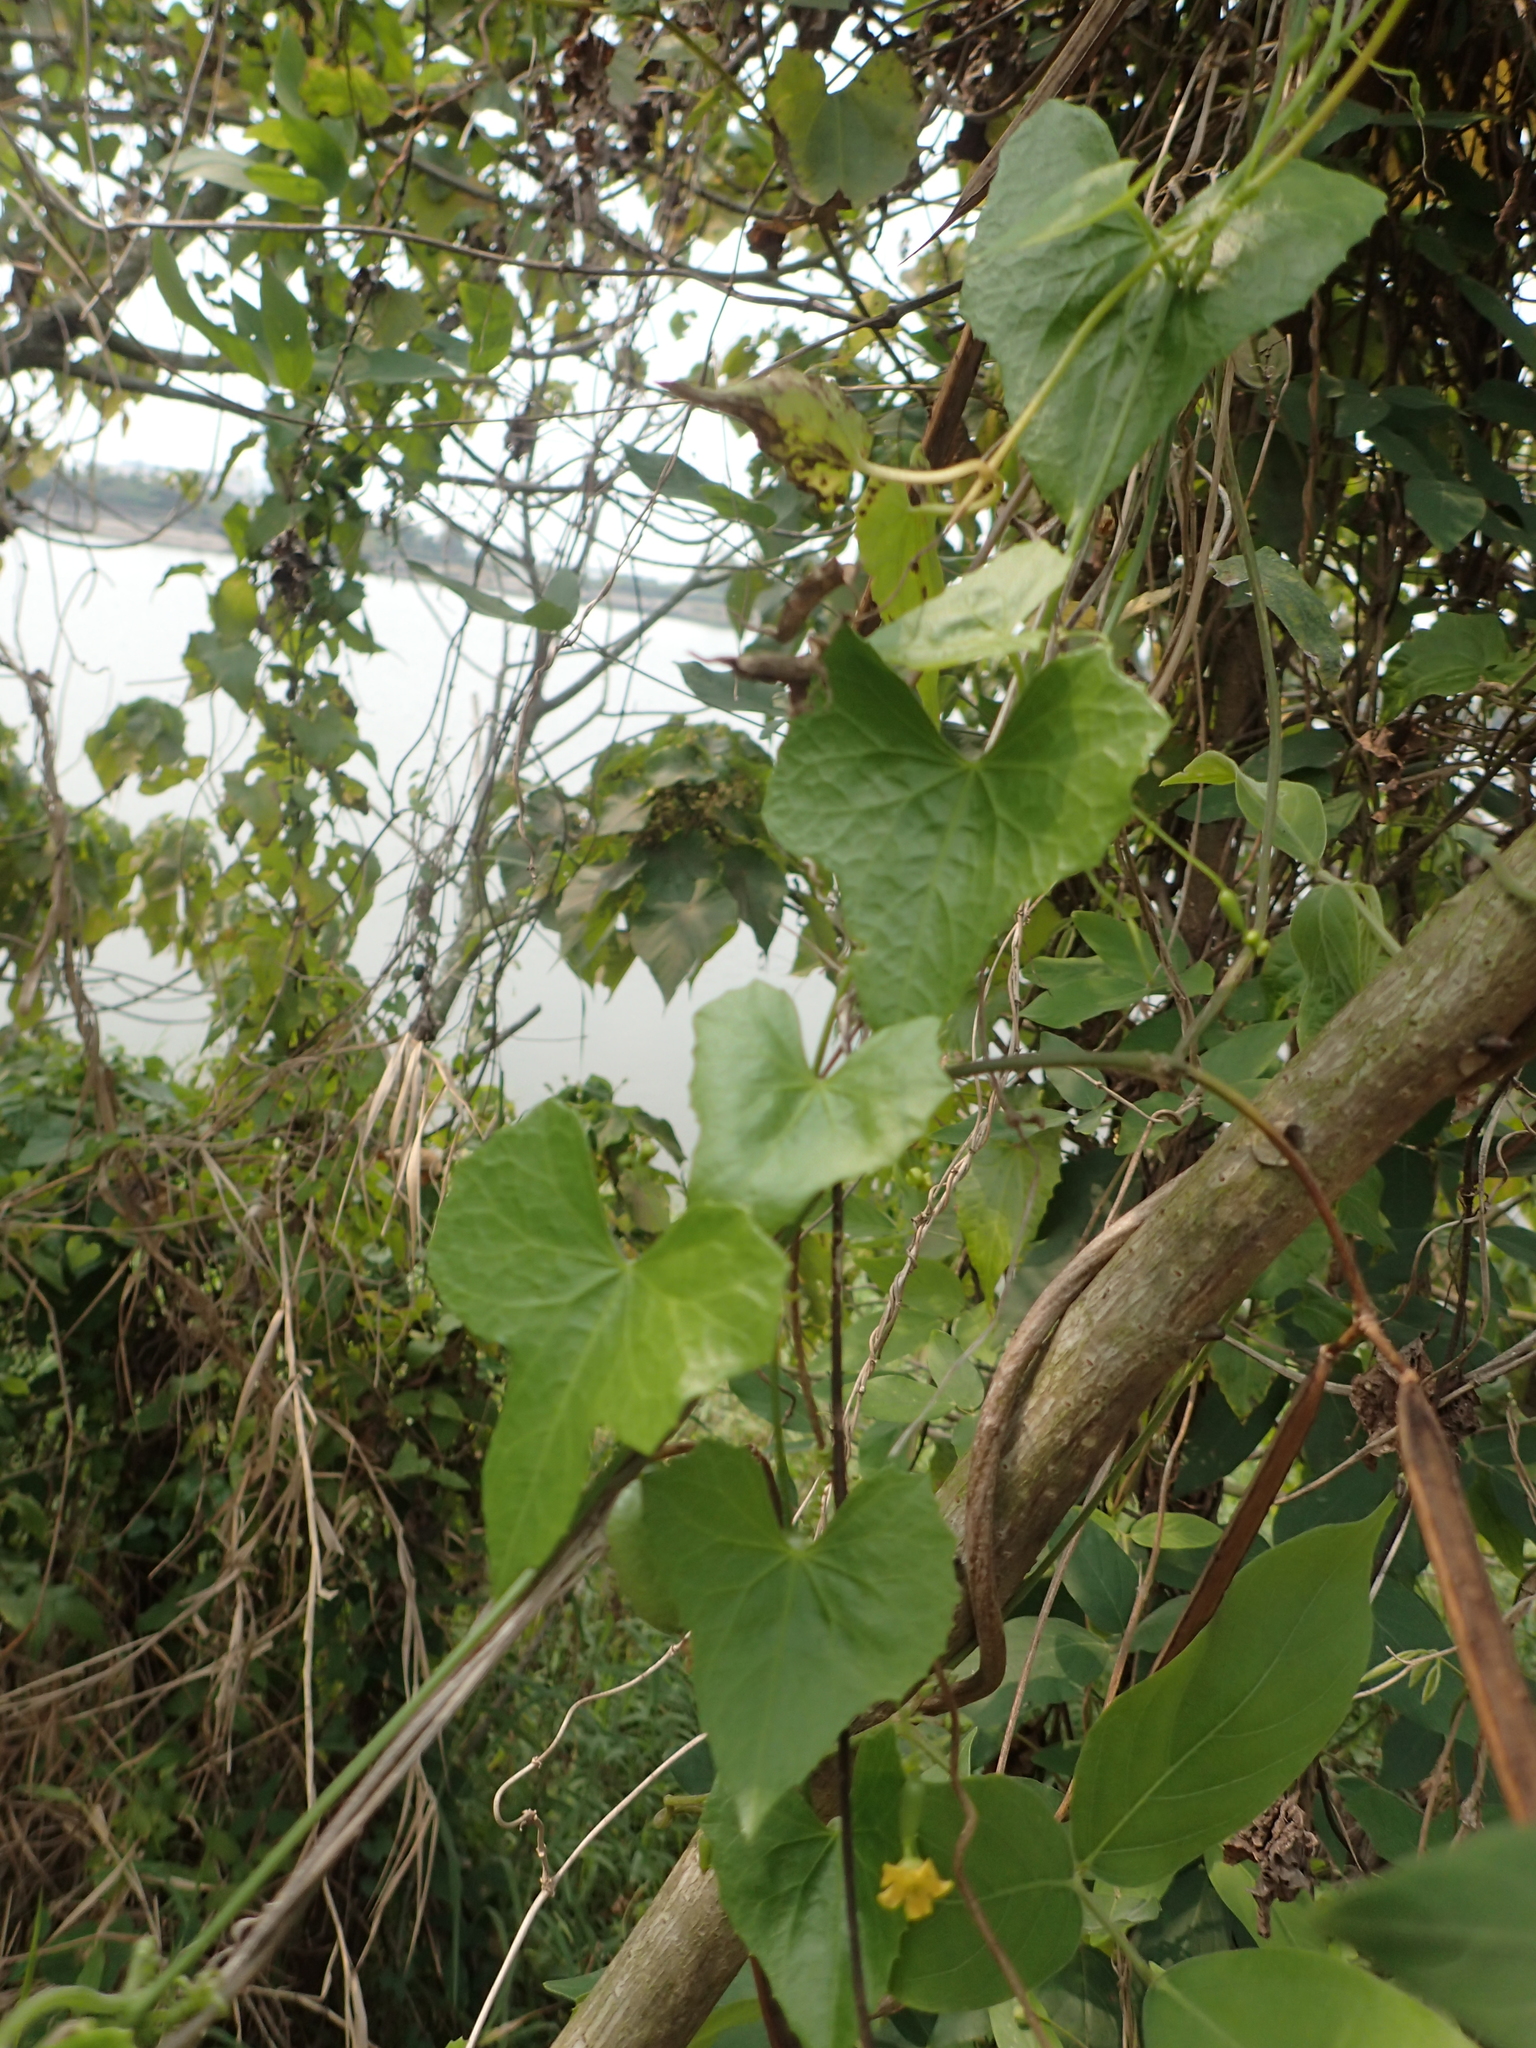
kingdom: Plantae
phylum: Tracheophyta
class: Magnoliopsida
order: Cucurbitales
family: Cucurbitaceae
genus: Melothria
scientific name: Melothria pendula
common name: Creeping-cucumber
